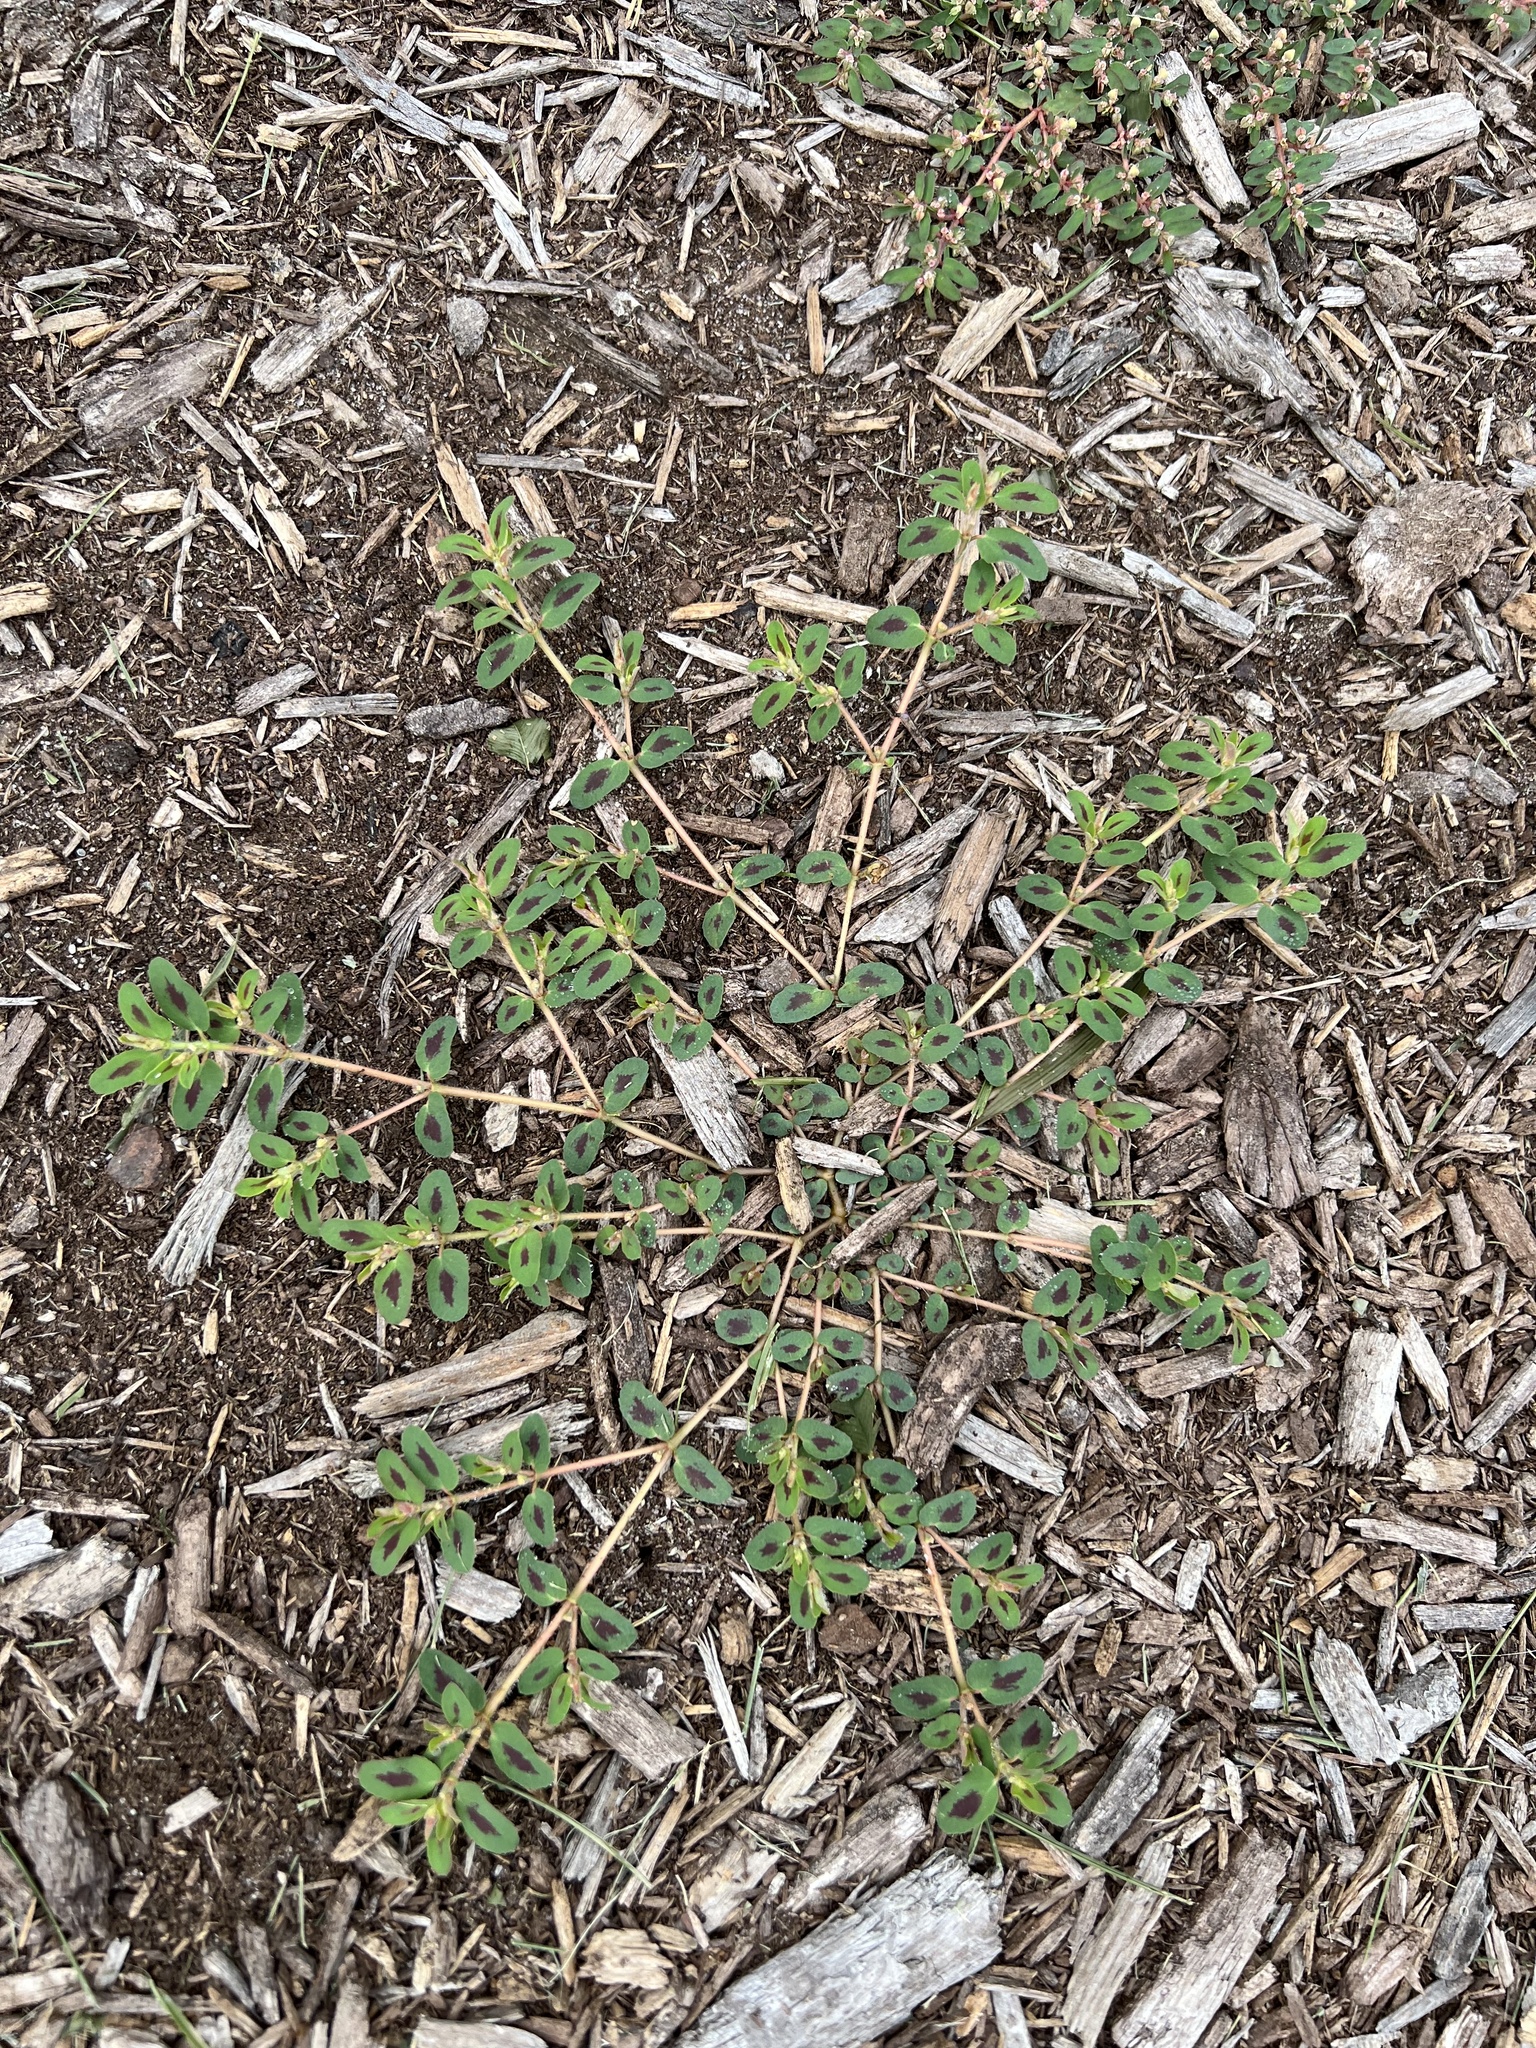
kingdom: Plantae
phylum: Tracheophyta
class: Magnoliopsida
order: Malpighiales
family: Euphorbiaceae
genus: Euphorbia
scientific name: Euphorbia maculata
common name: Spotted spurge
